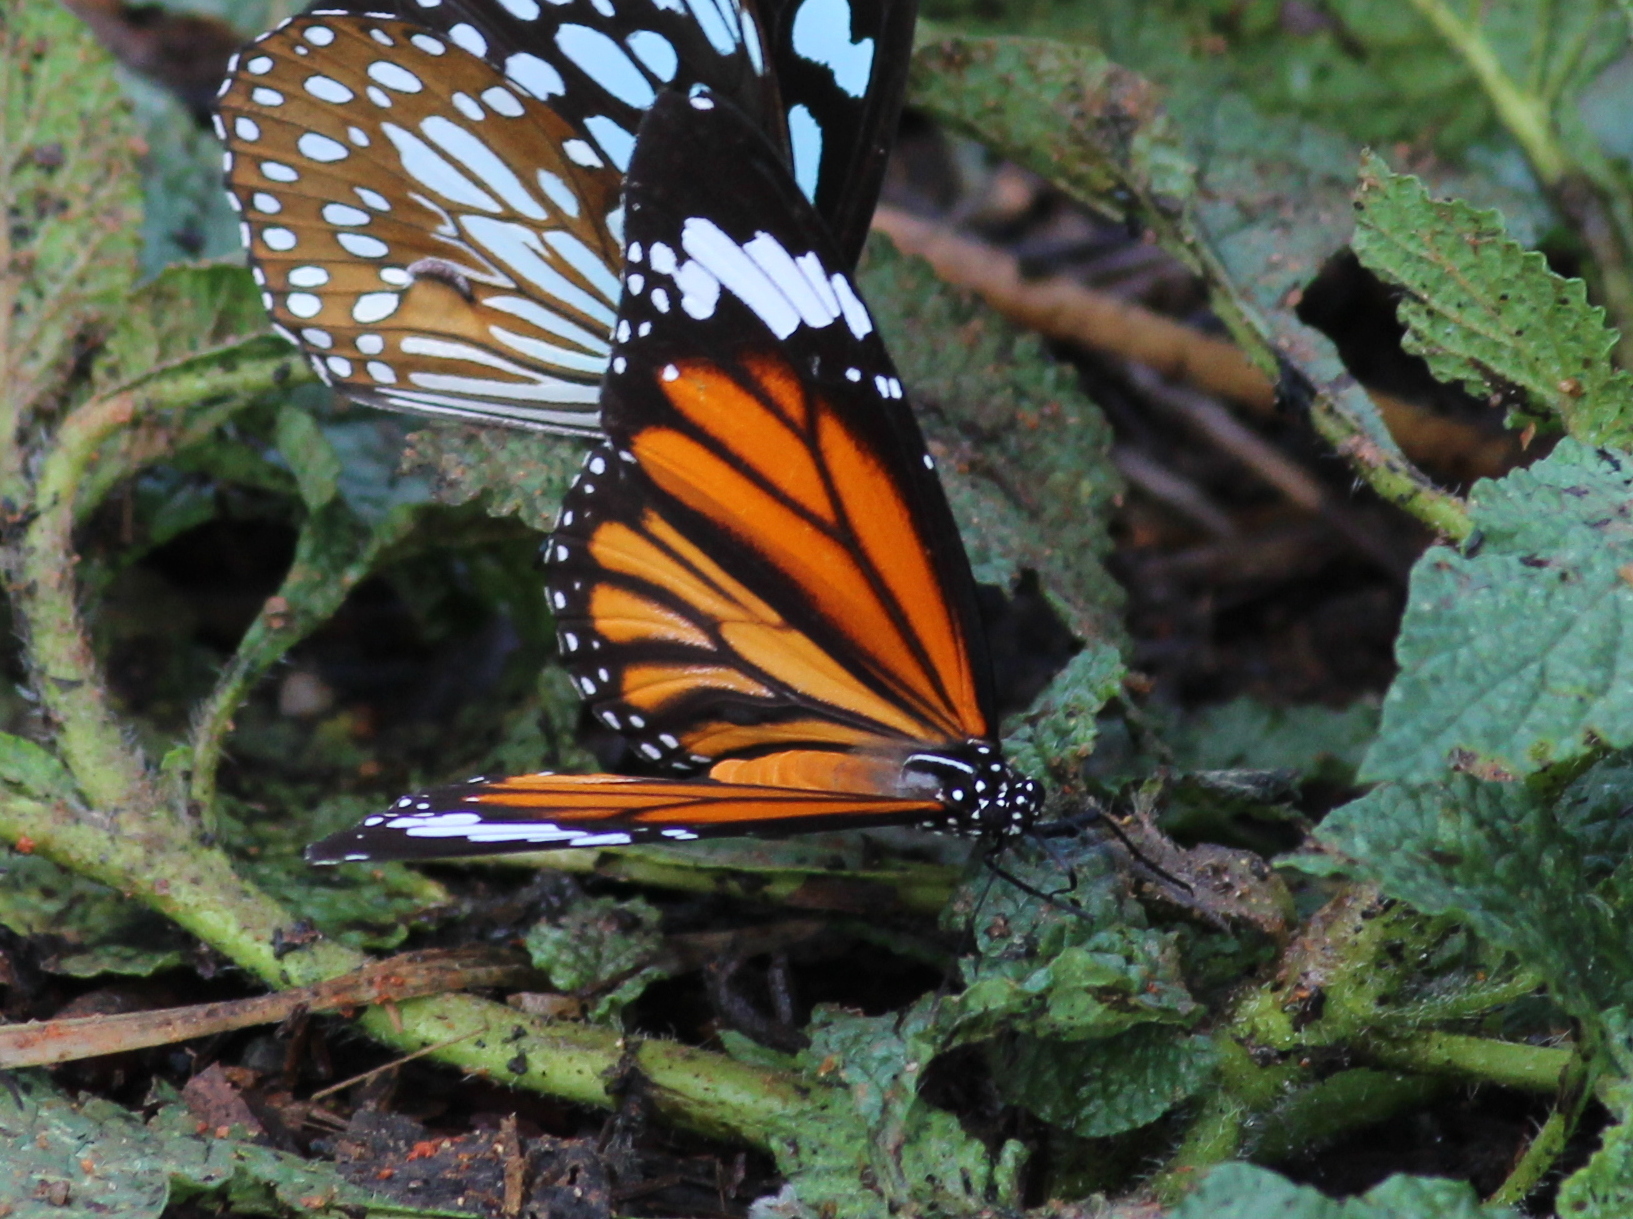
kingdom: Animalia
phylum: Arthropoda
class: Insecta
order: Lepidoptera
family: Nymphalidae
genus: Danaus
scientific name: Danaus genutia
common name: Common tiger butterfly
